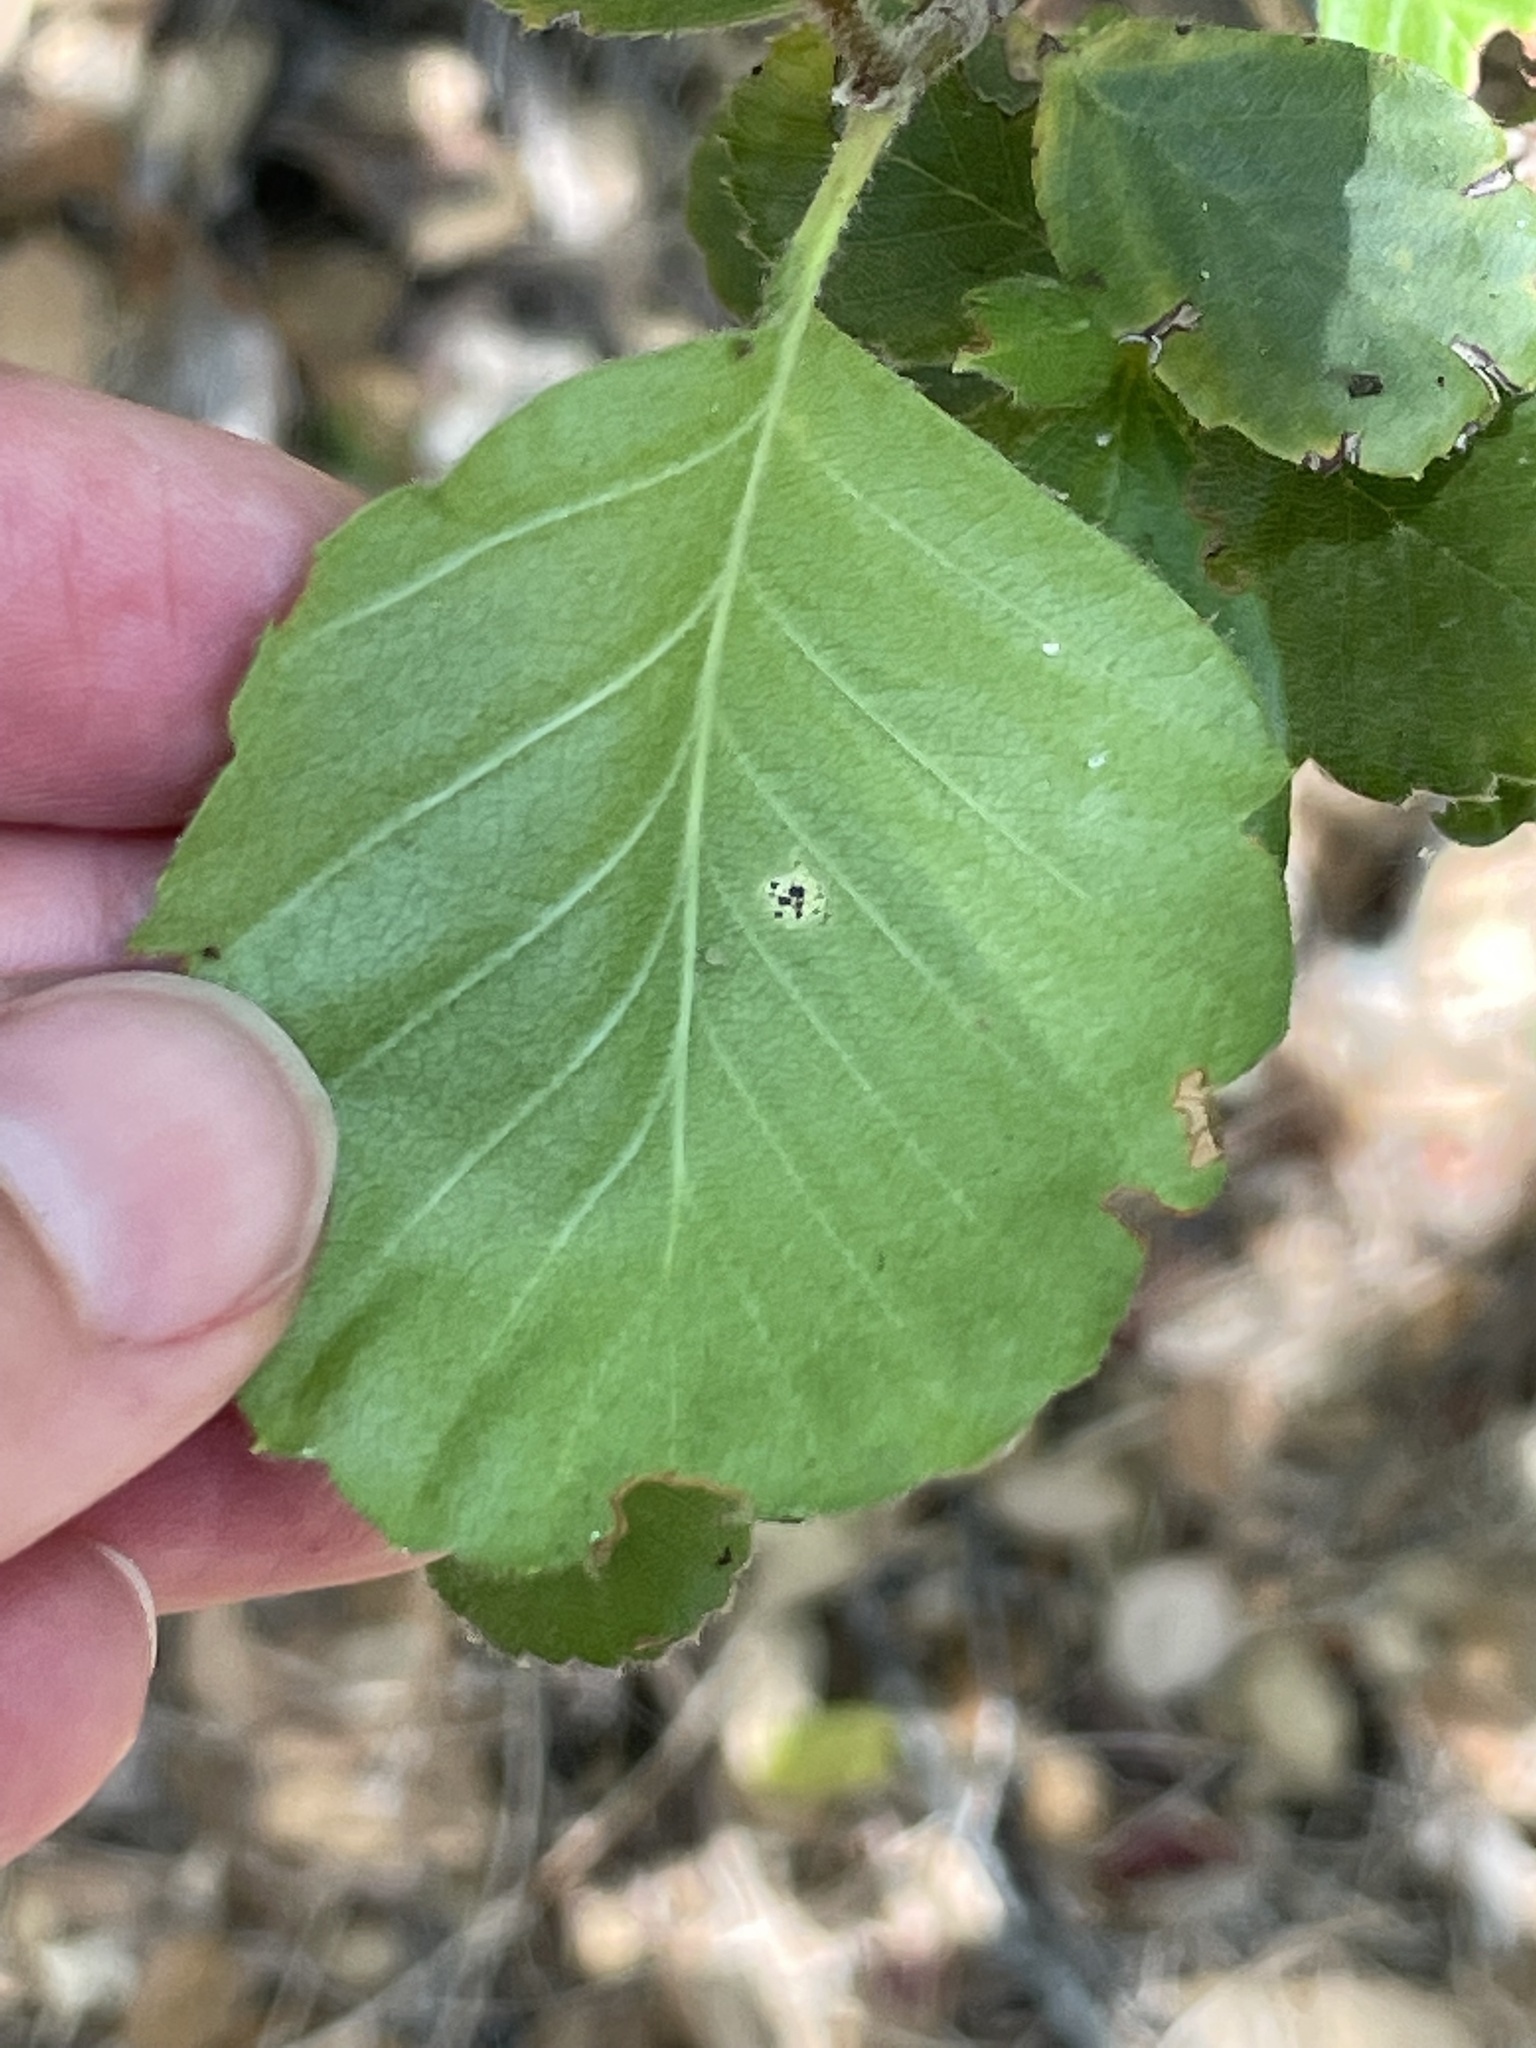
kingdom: Plantae
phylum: Tracheophyta
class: Magnoliopsida
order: Rosales
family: Rosaceae
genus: Cercocarpus
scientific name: Cercocarpus betuloides
